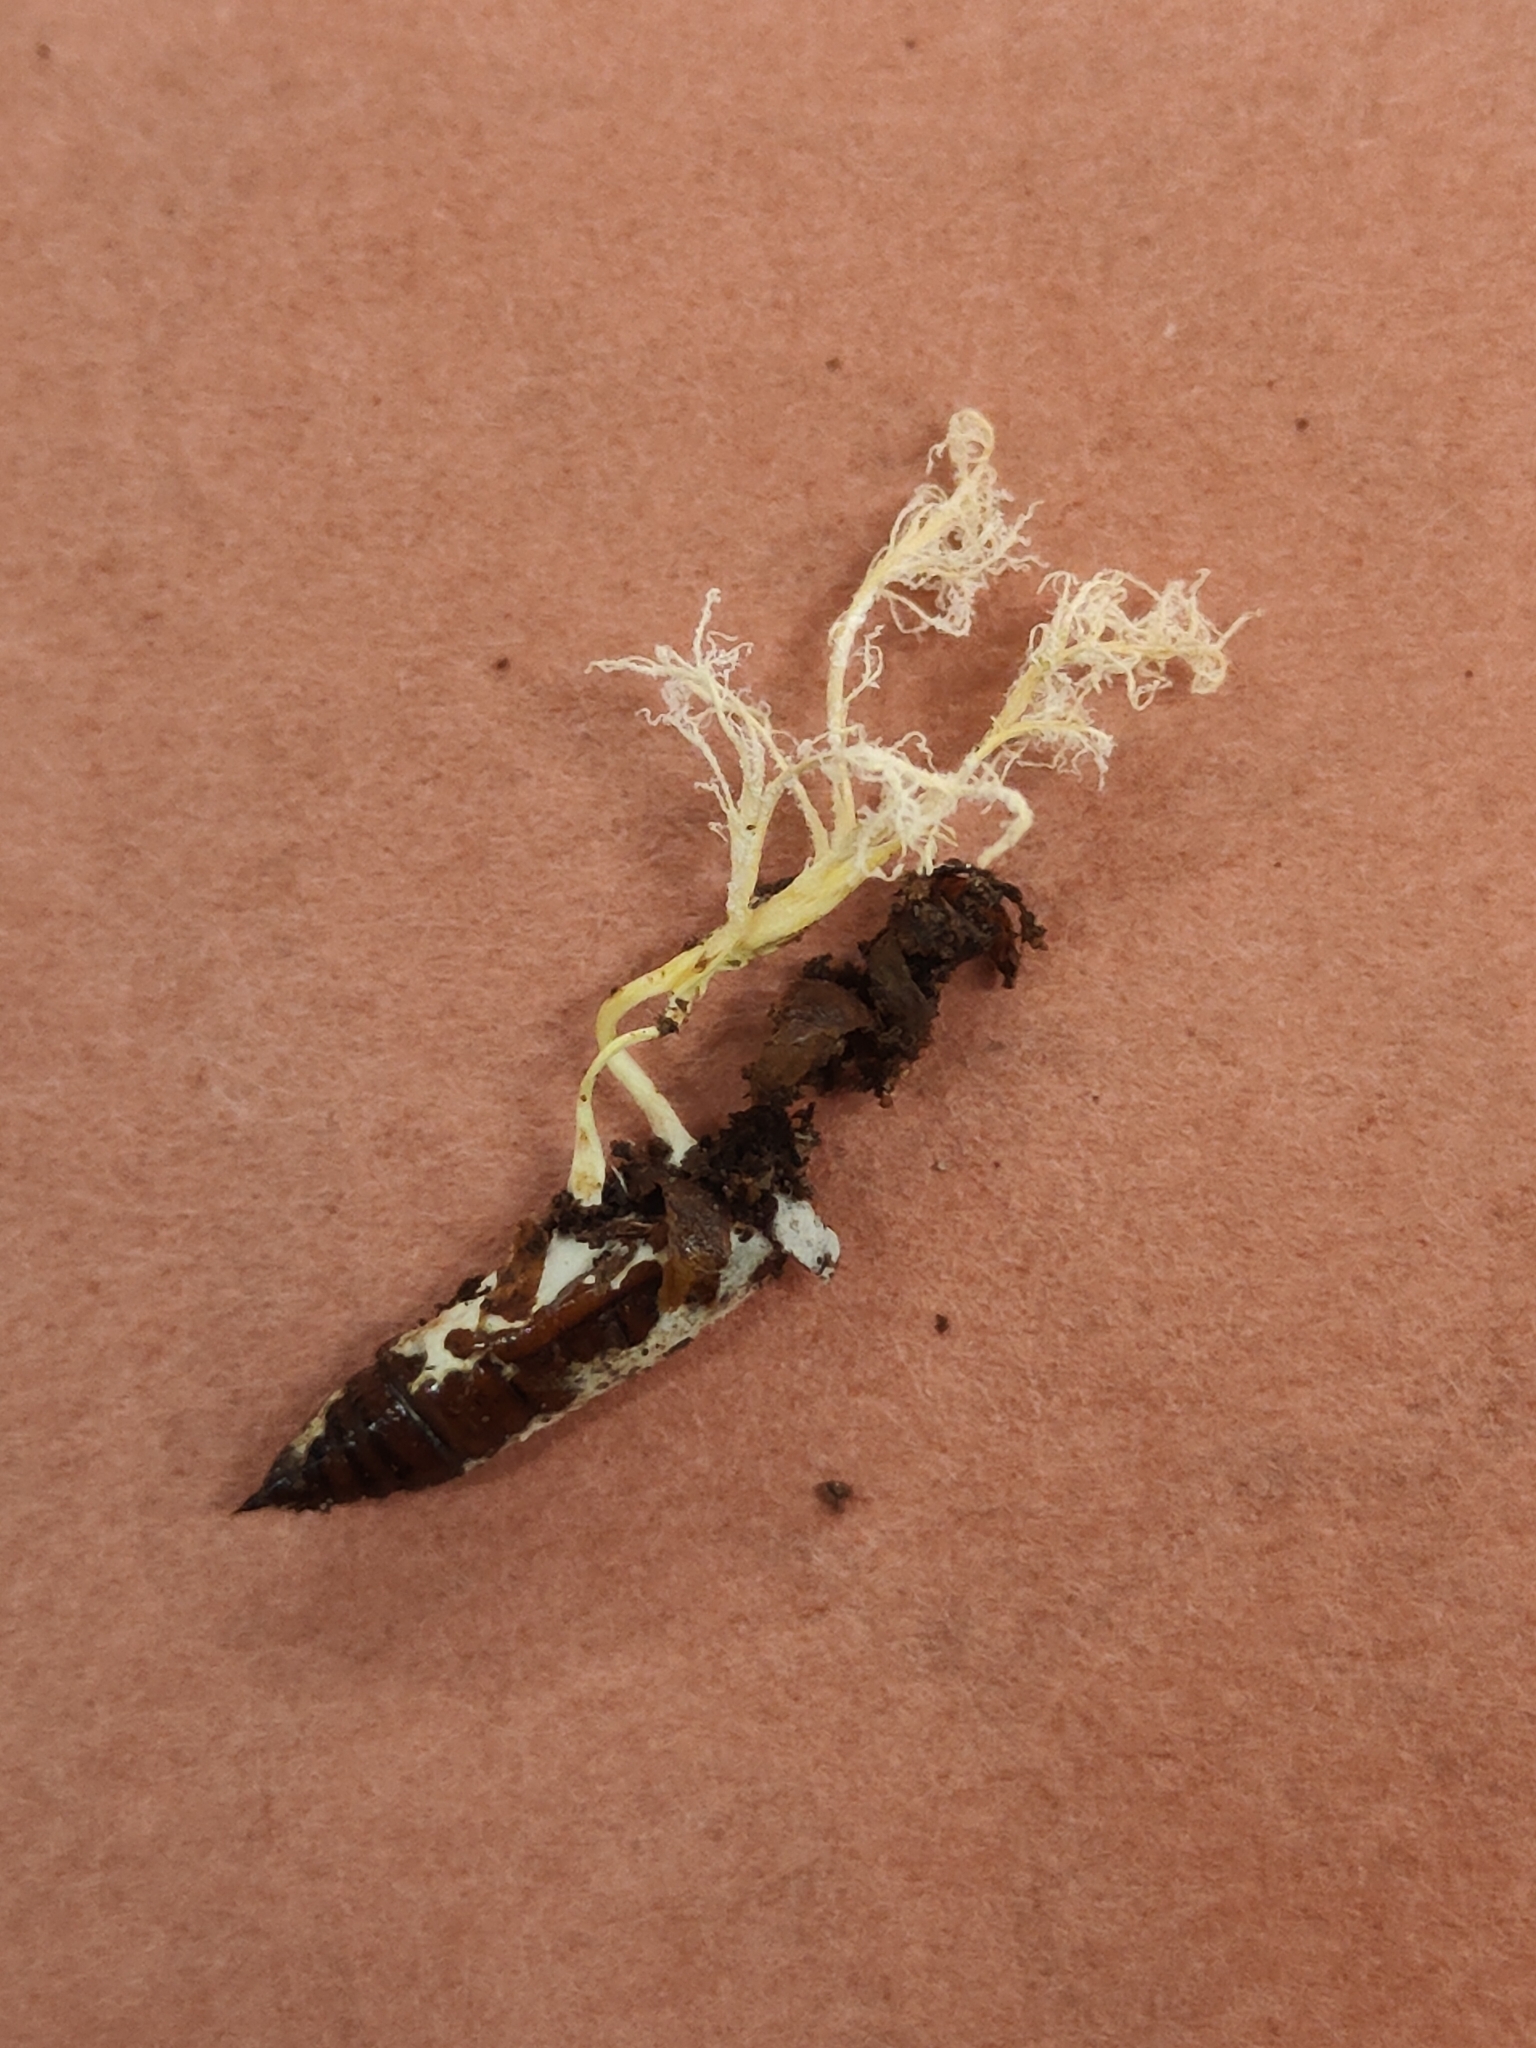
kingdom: Fungi
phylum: Ascomycota
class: Sordariomycetes
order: Hypocreales
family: Cordycipitaceae
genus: Cordyceps
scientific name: Cordyceps tenuipes
